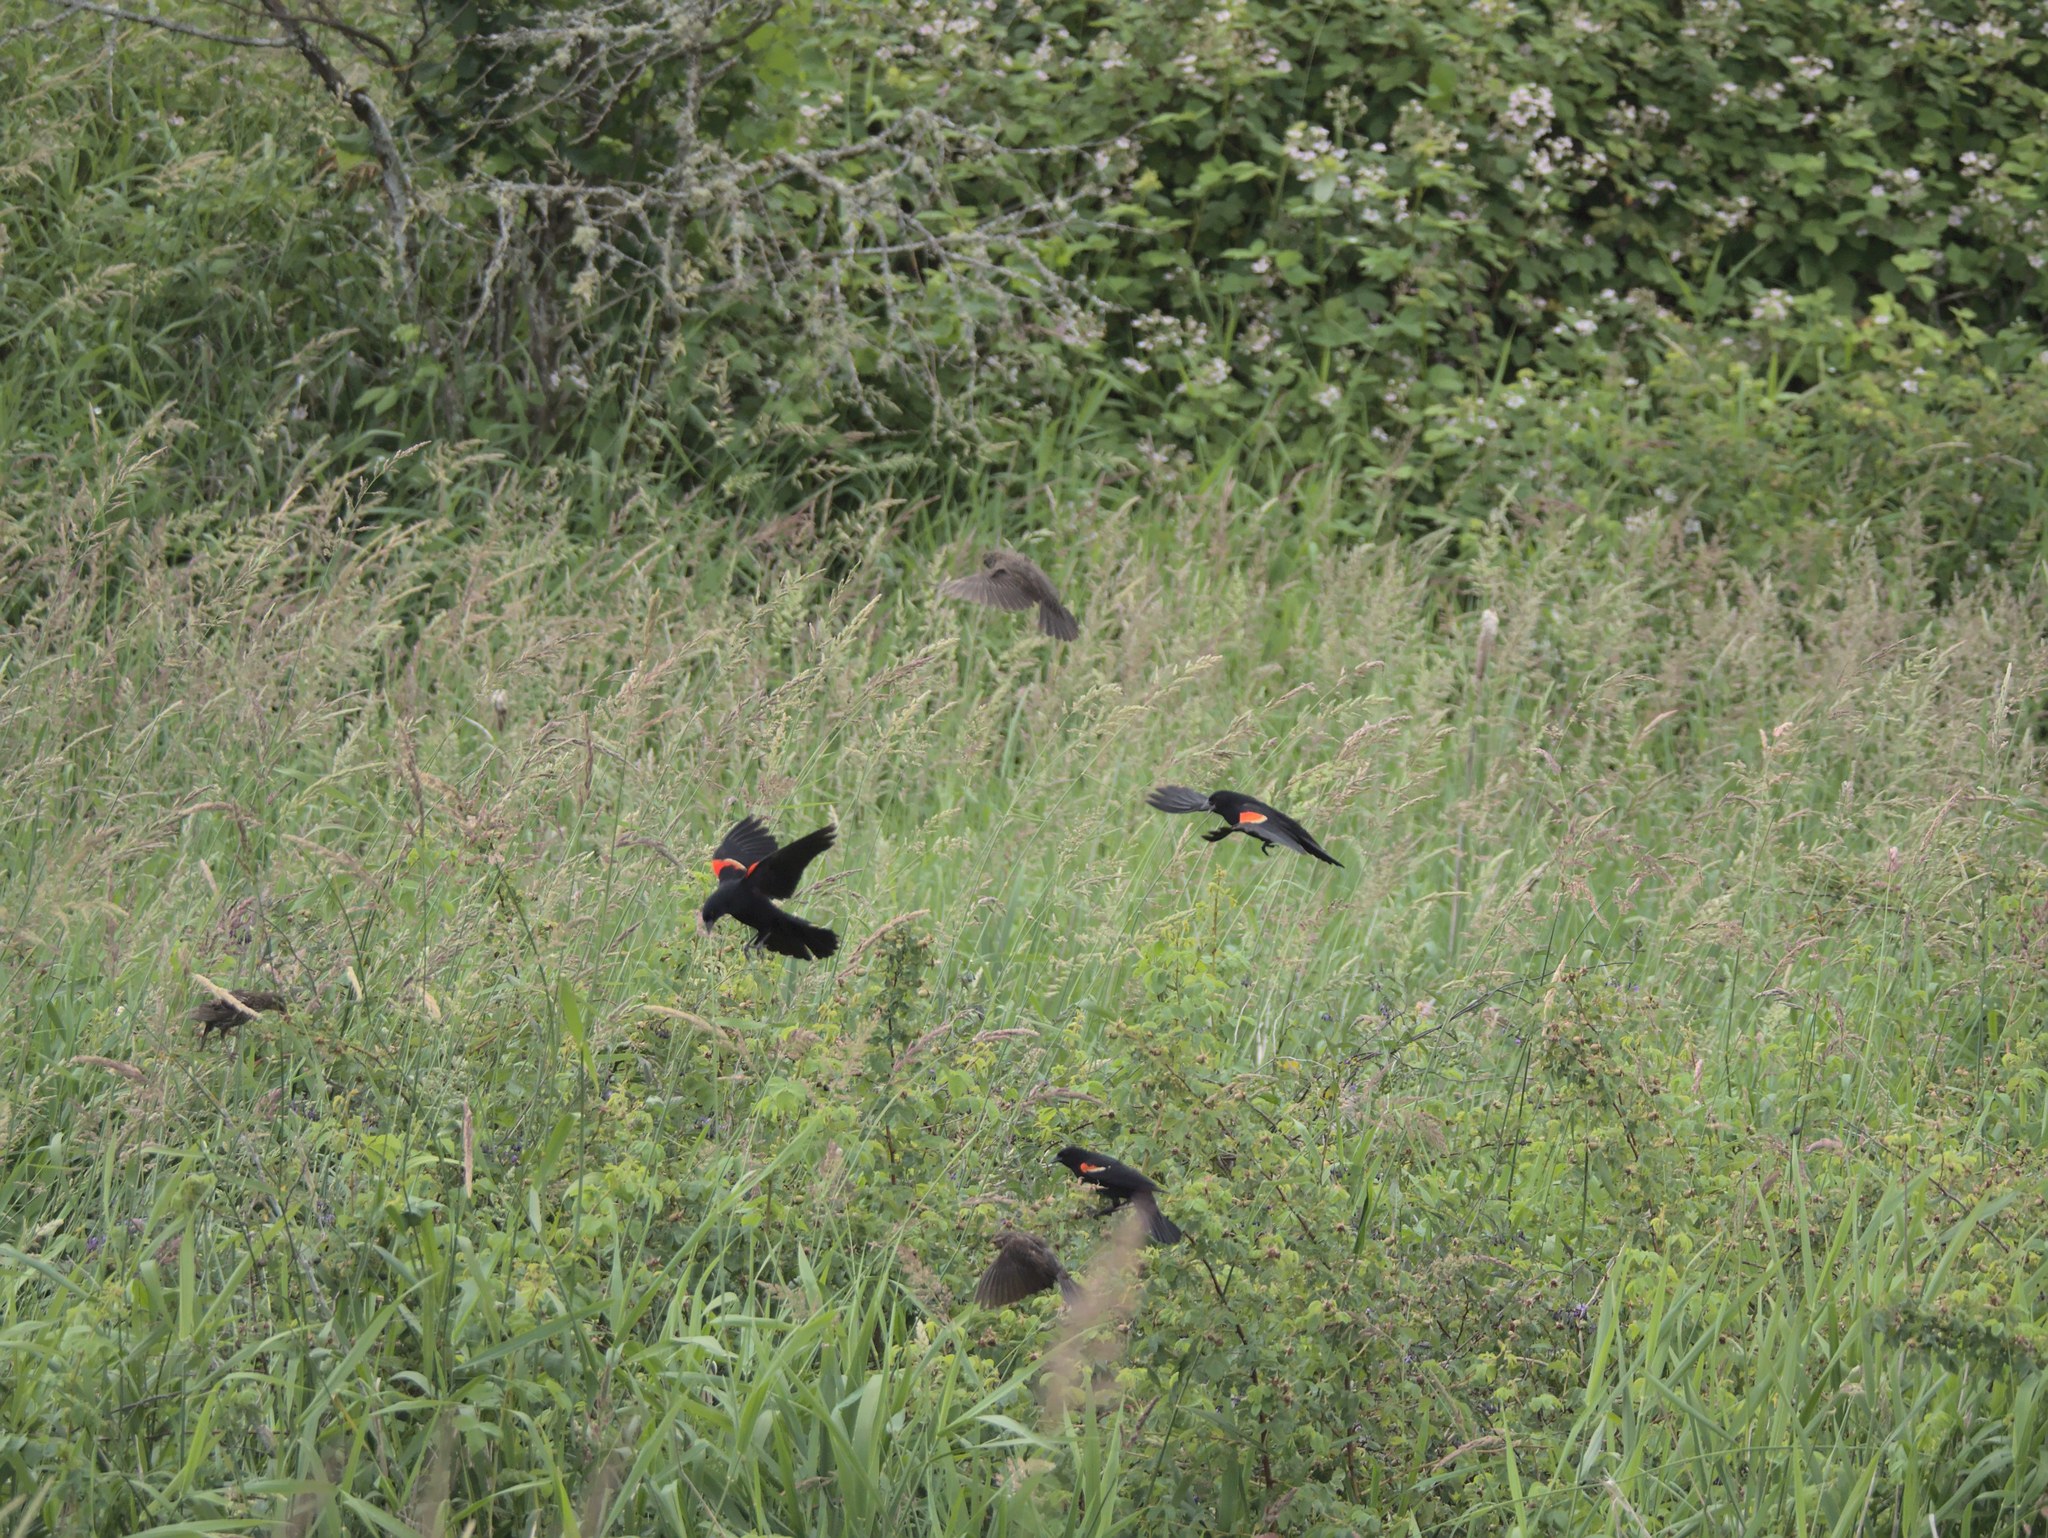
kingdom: Animalia
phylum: Chordata
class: Aves
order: Passeriformes
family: Icteridae
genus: Agelaius
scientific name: Agelaius phoeniceus
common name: Red-winged blackbird
